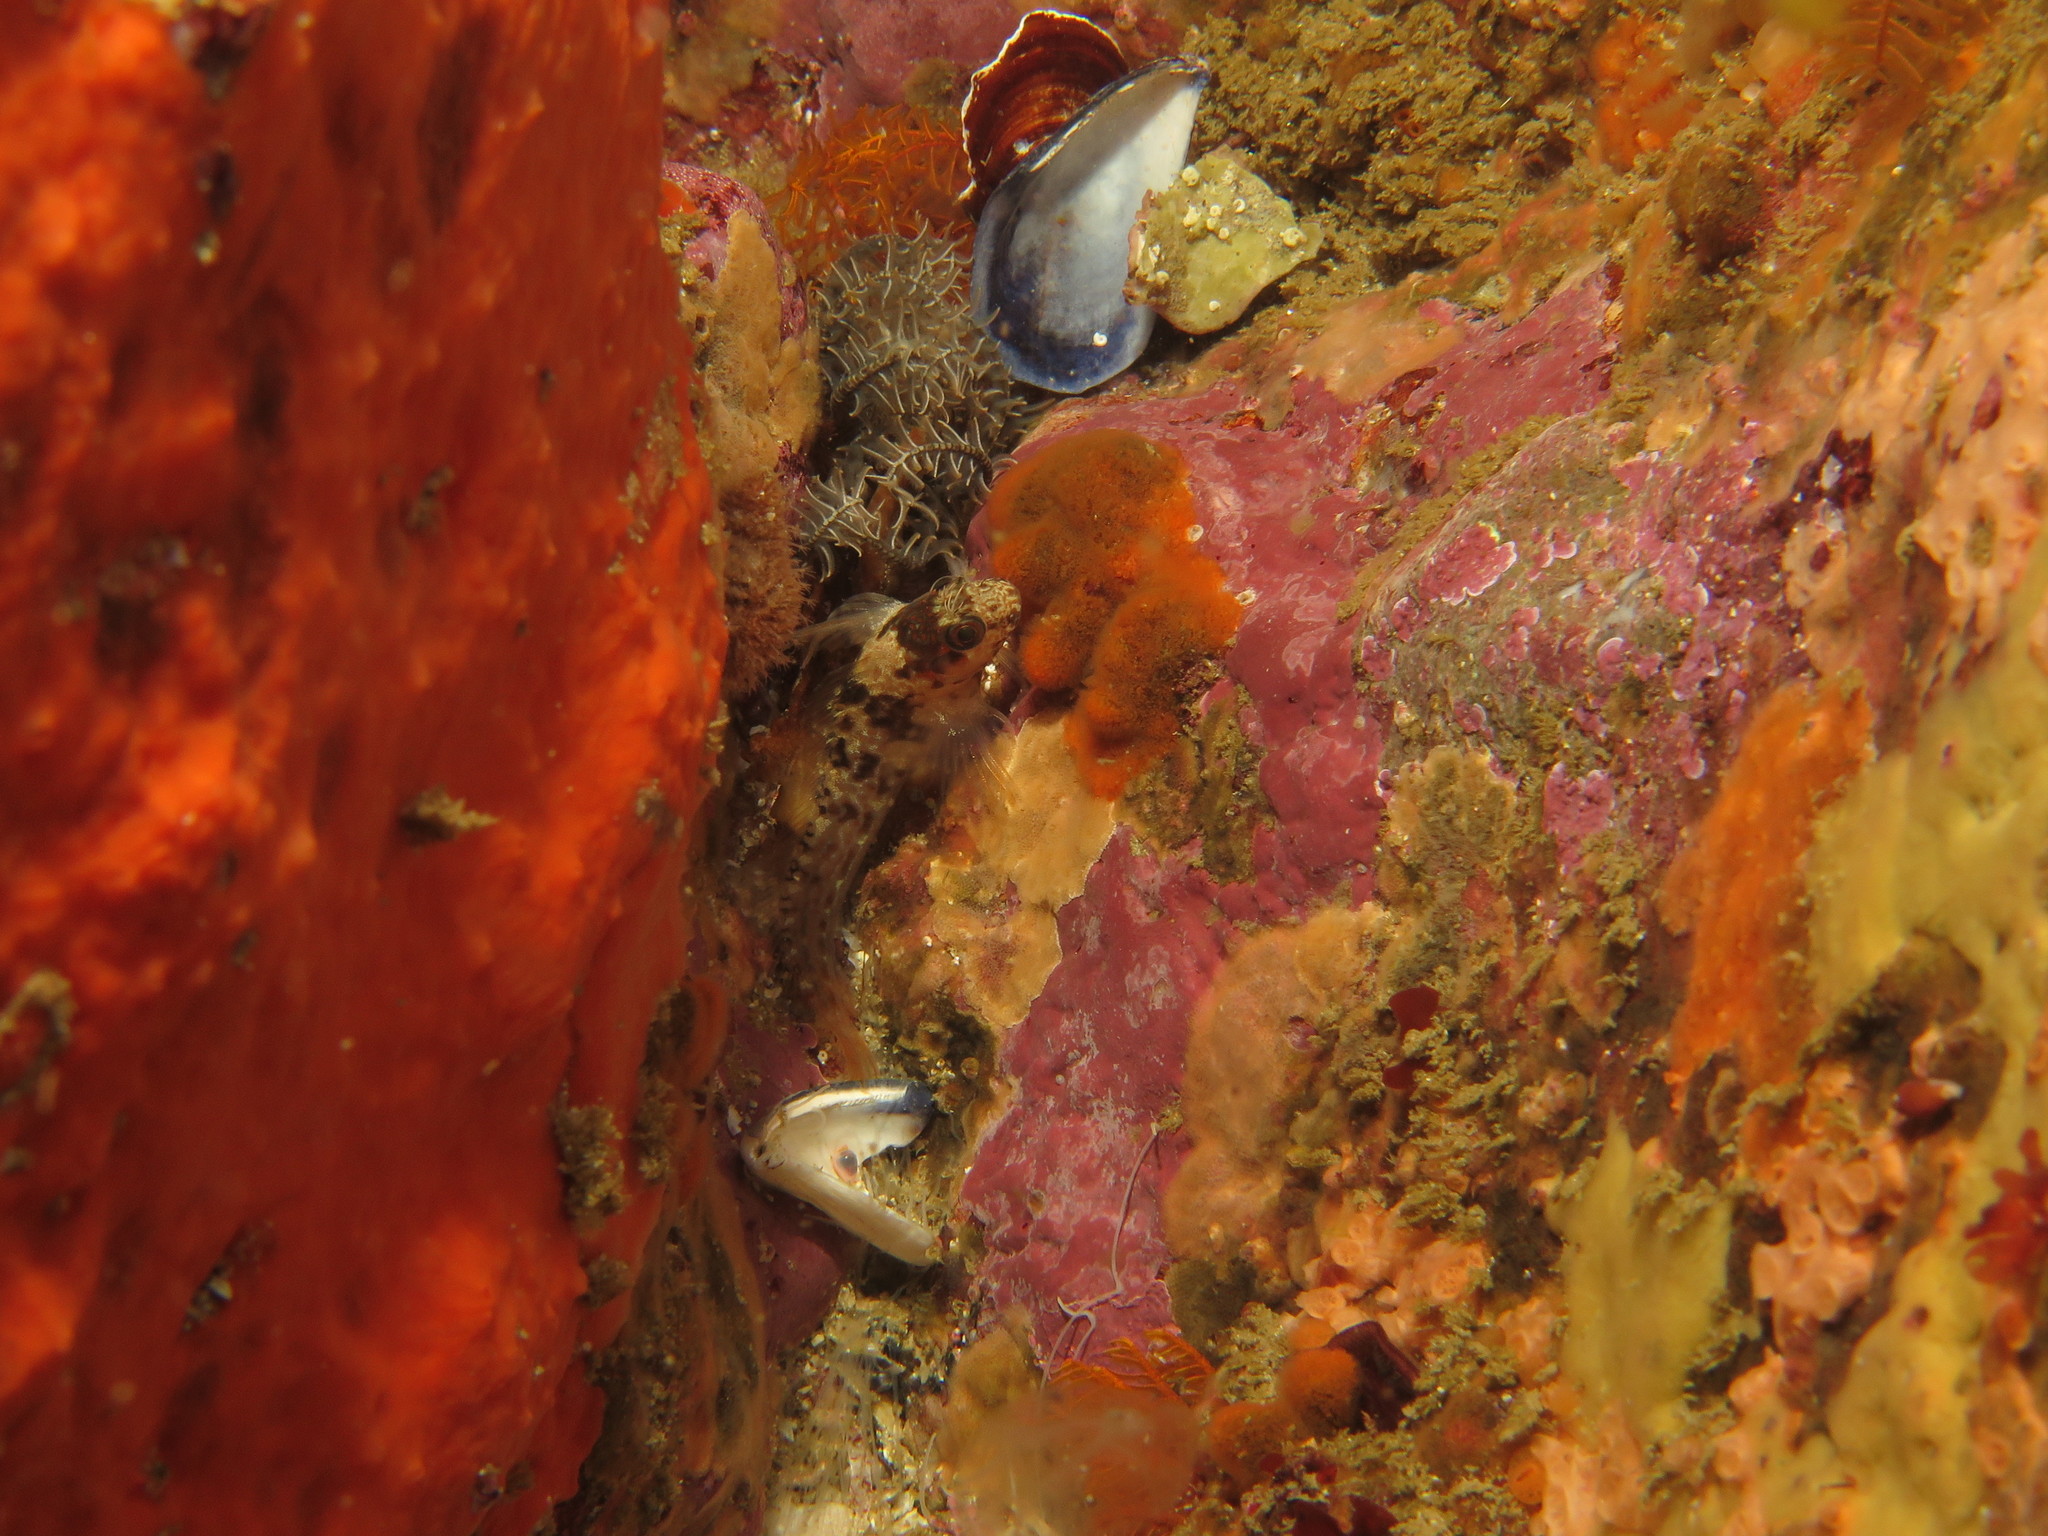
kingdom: Animalia
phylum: Chordata
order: Perciformes
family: Blenniidae
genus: Chalaroderma
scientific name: Chalaroderma ocellata
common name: Two-eyed blenny
